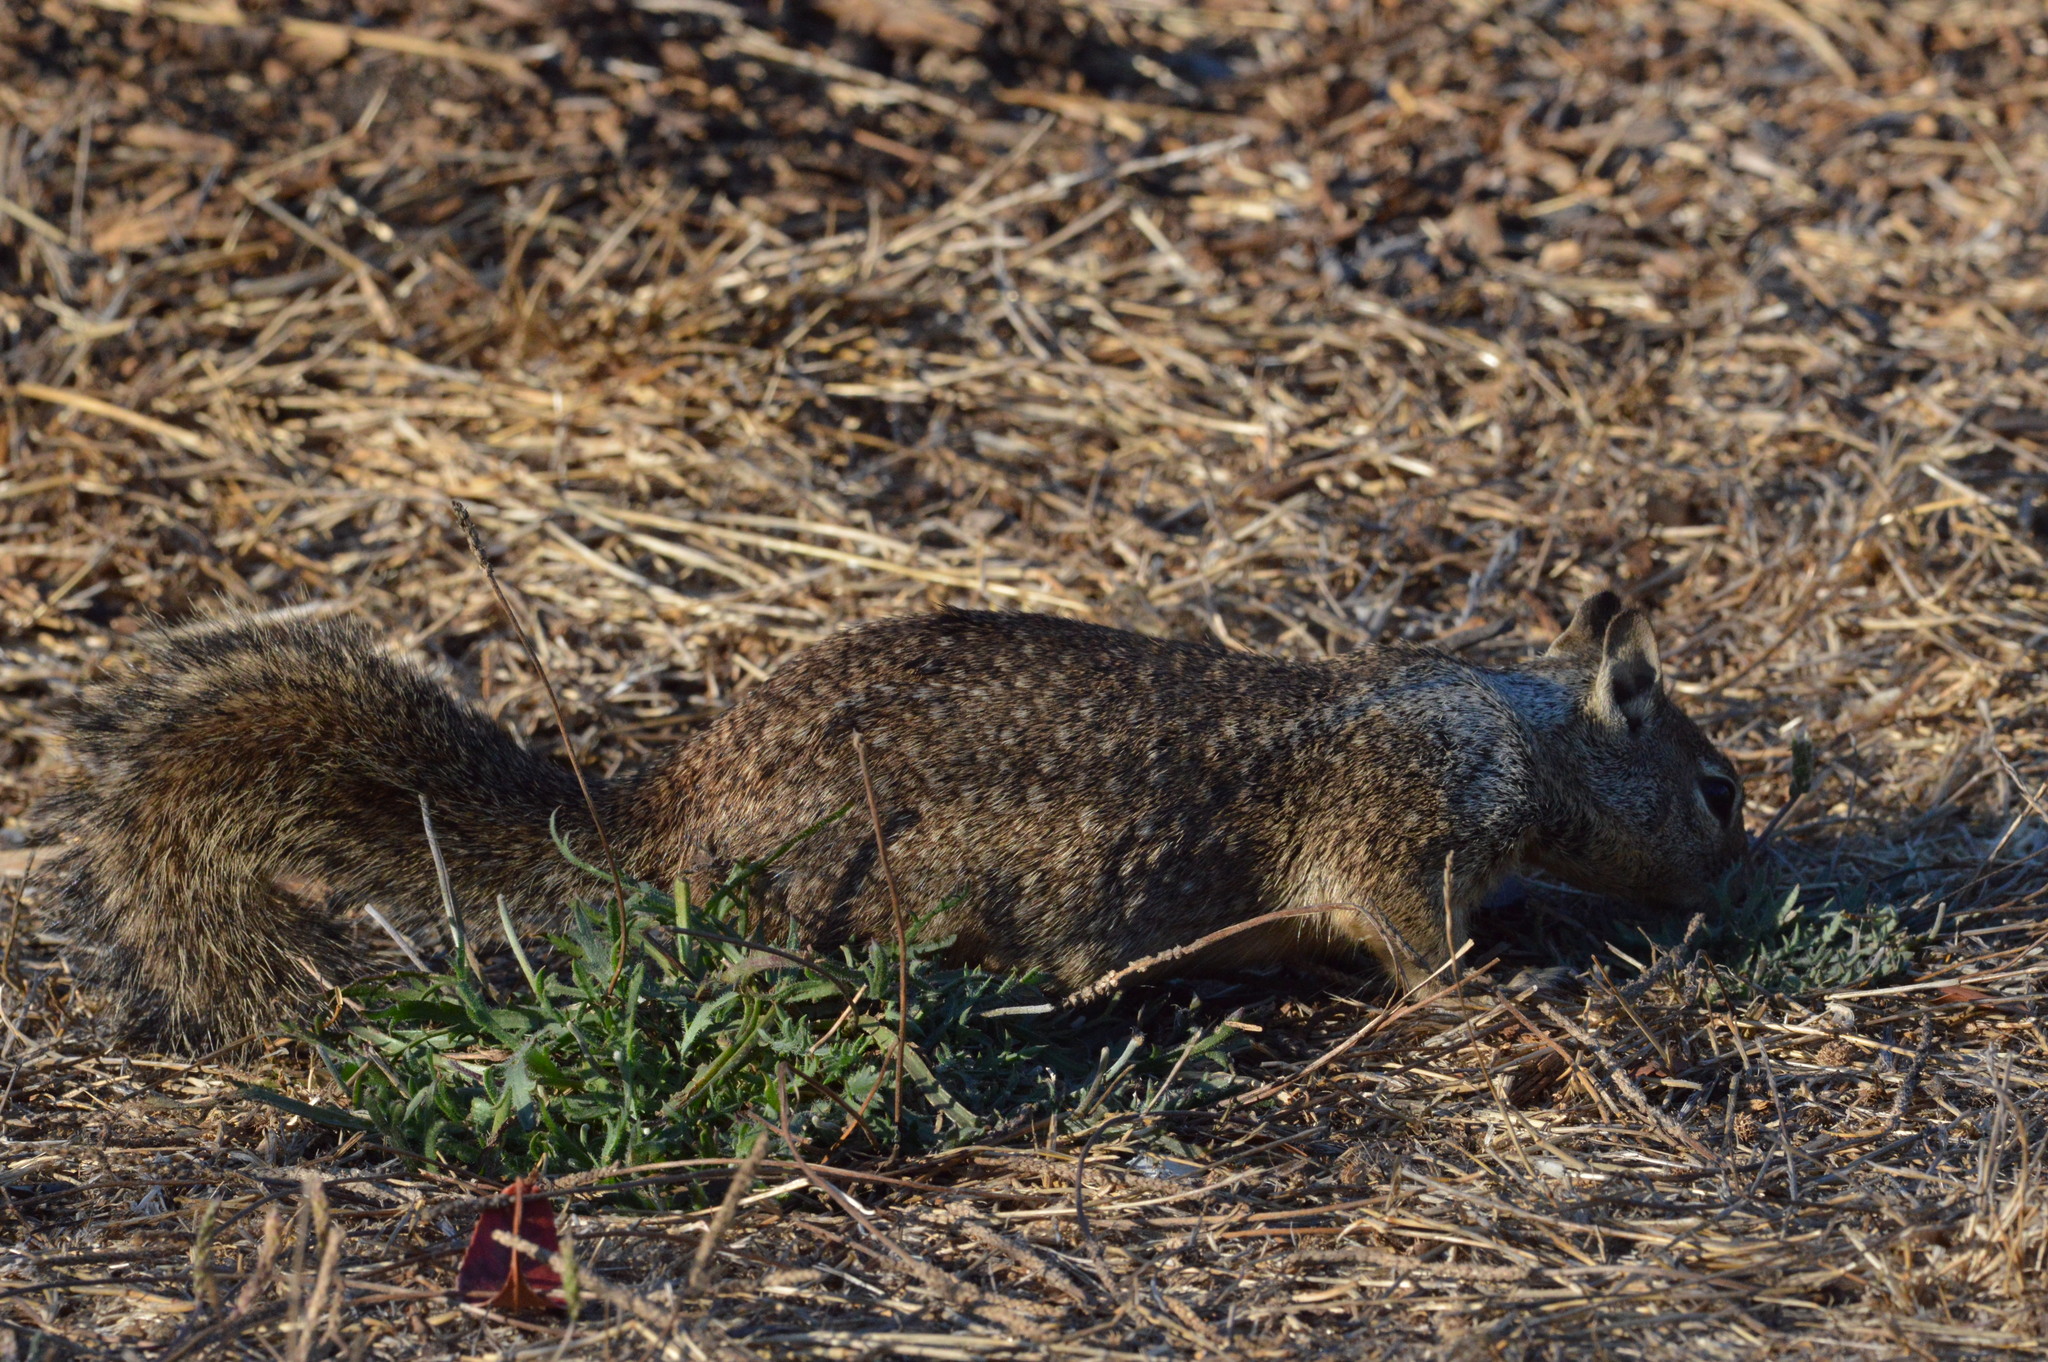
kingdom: Animalia
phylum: Chordata
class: Mammalia
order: Rodentia
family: Sciuridae
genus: Otospermophilus
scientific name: Otospermophilus beecheyi
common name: California ground squirrel
